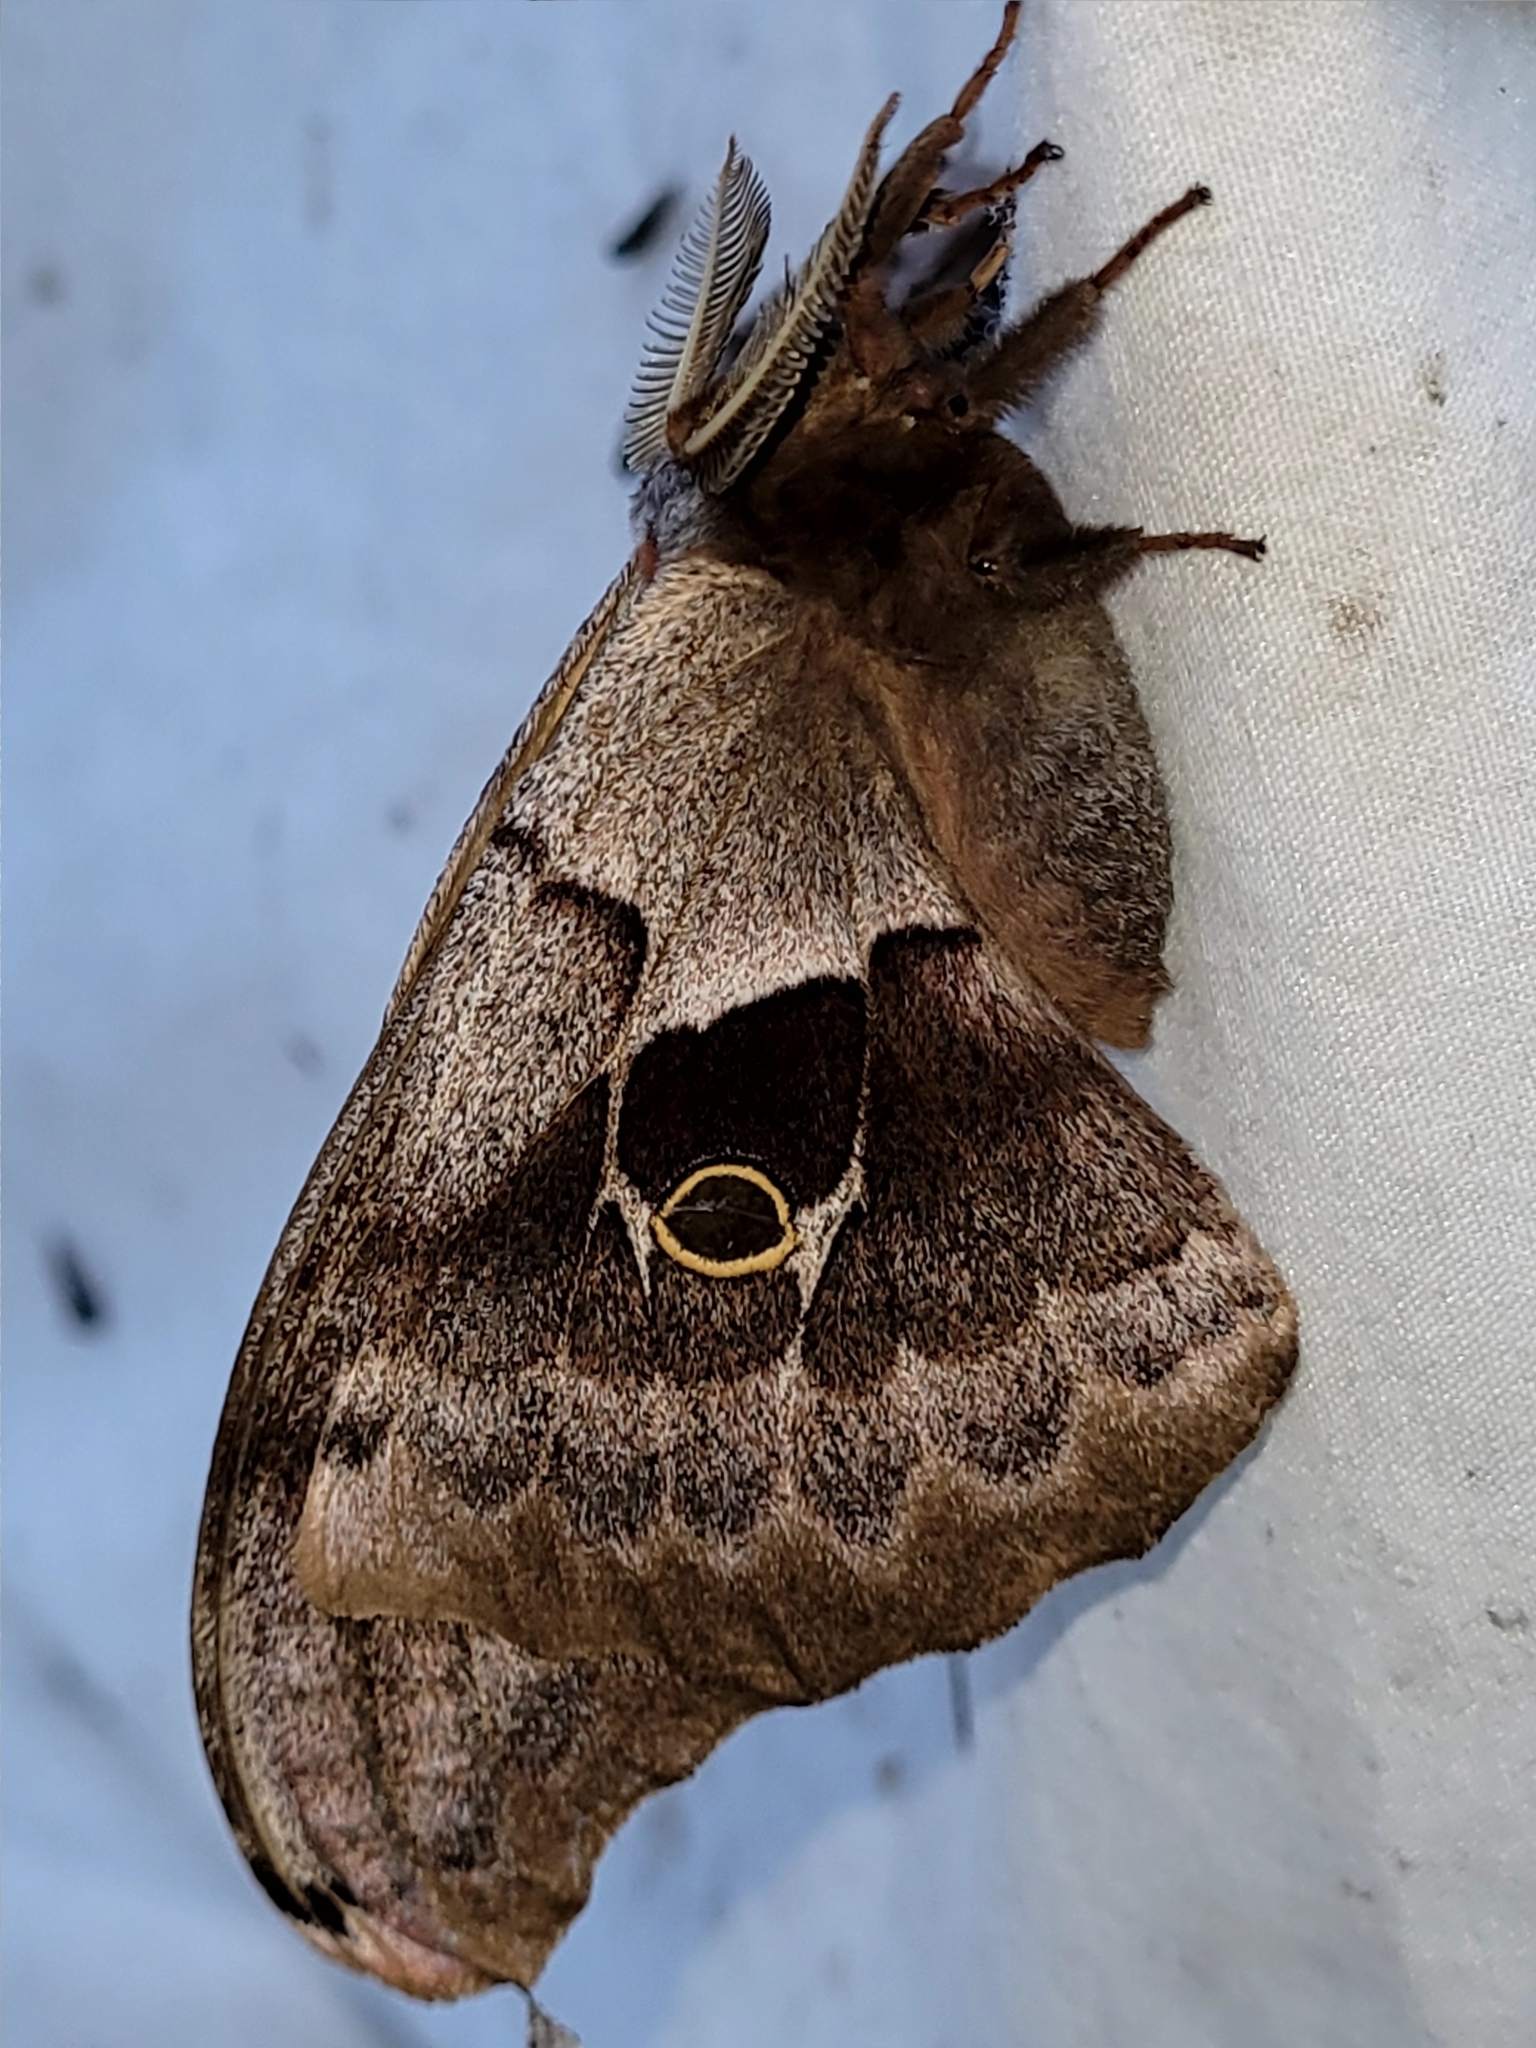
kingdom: Animalia
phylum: Arthropoda
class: Insecta
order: Lepidoptera
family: Saturniidae
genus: Antheraea
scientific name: Antheraea polyphemus
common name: Polyphemus moth
